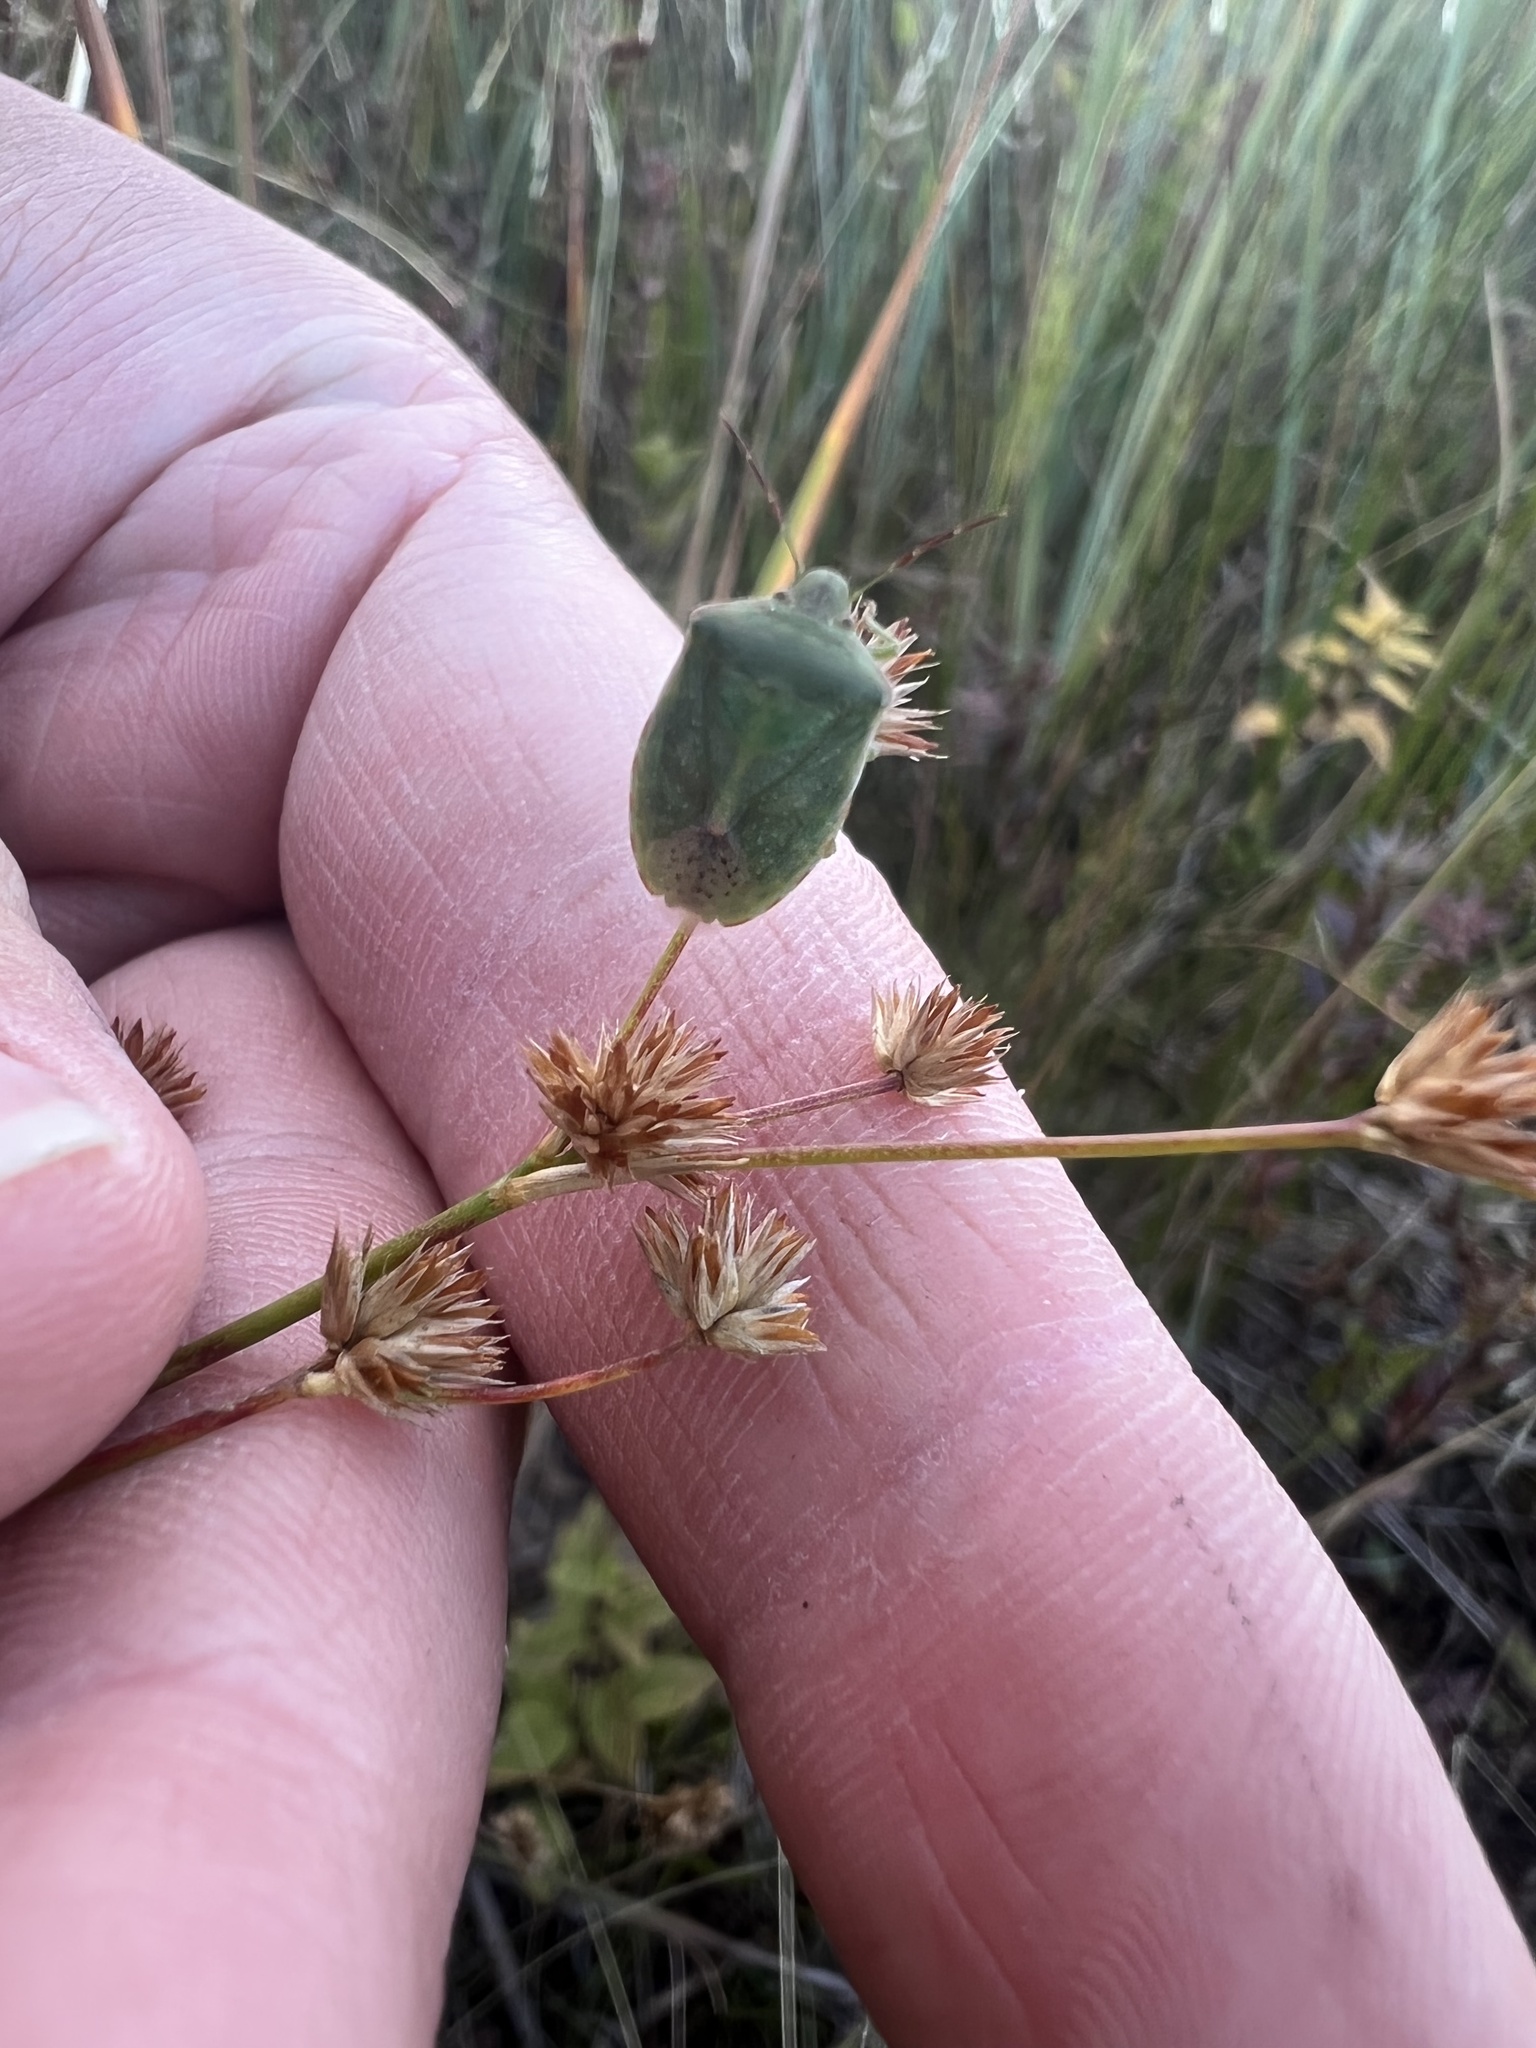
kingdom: Animalia
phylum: Arthropoda
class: Insecta
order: Hemiptera
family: Pentatomidae
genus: Thyanta
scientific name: Thyanta accerra
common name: Stink bug
